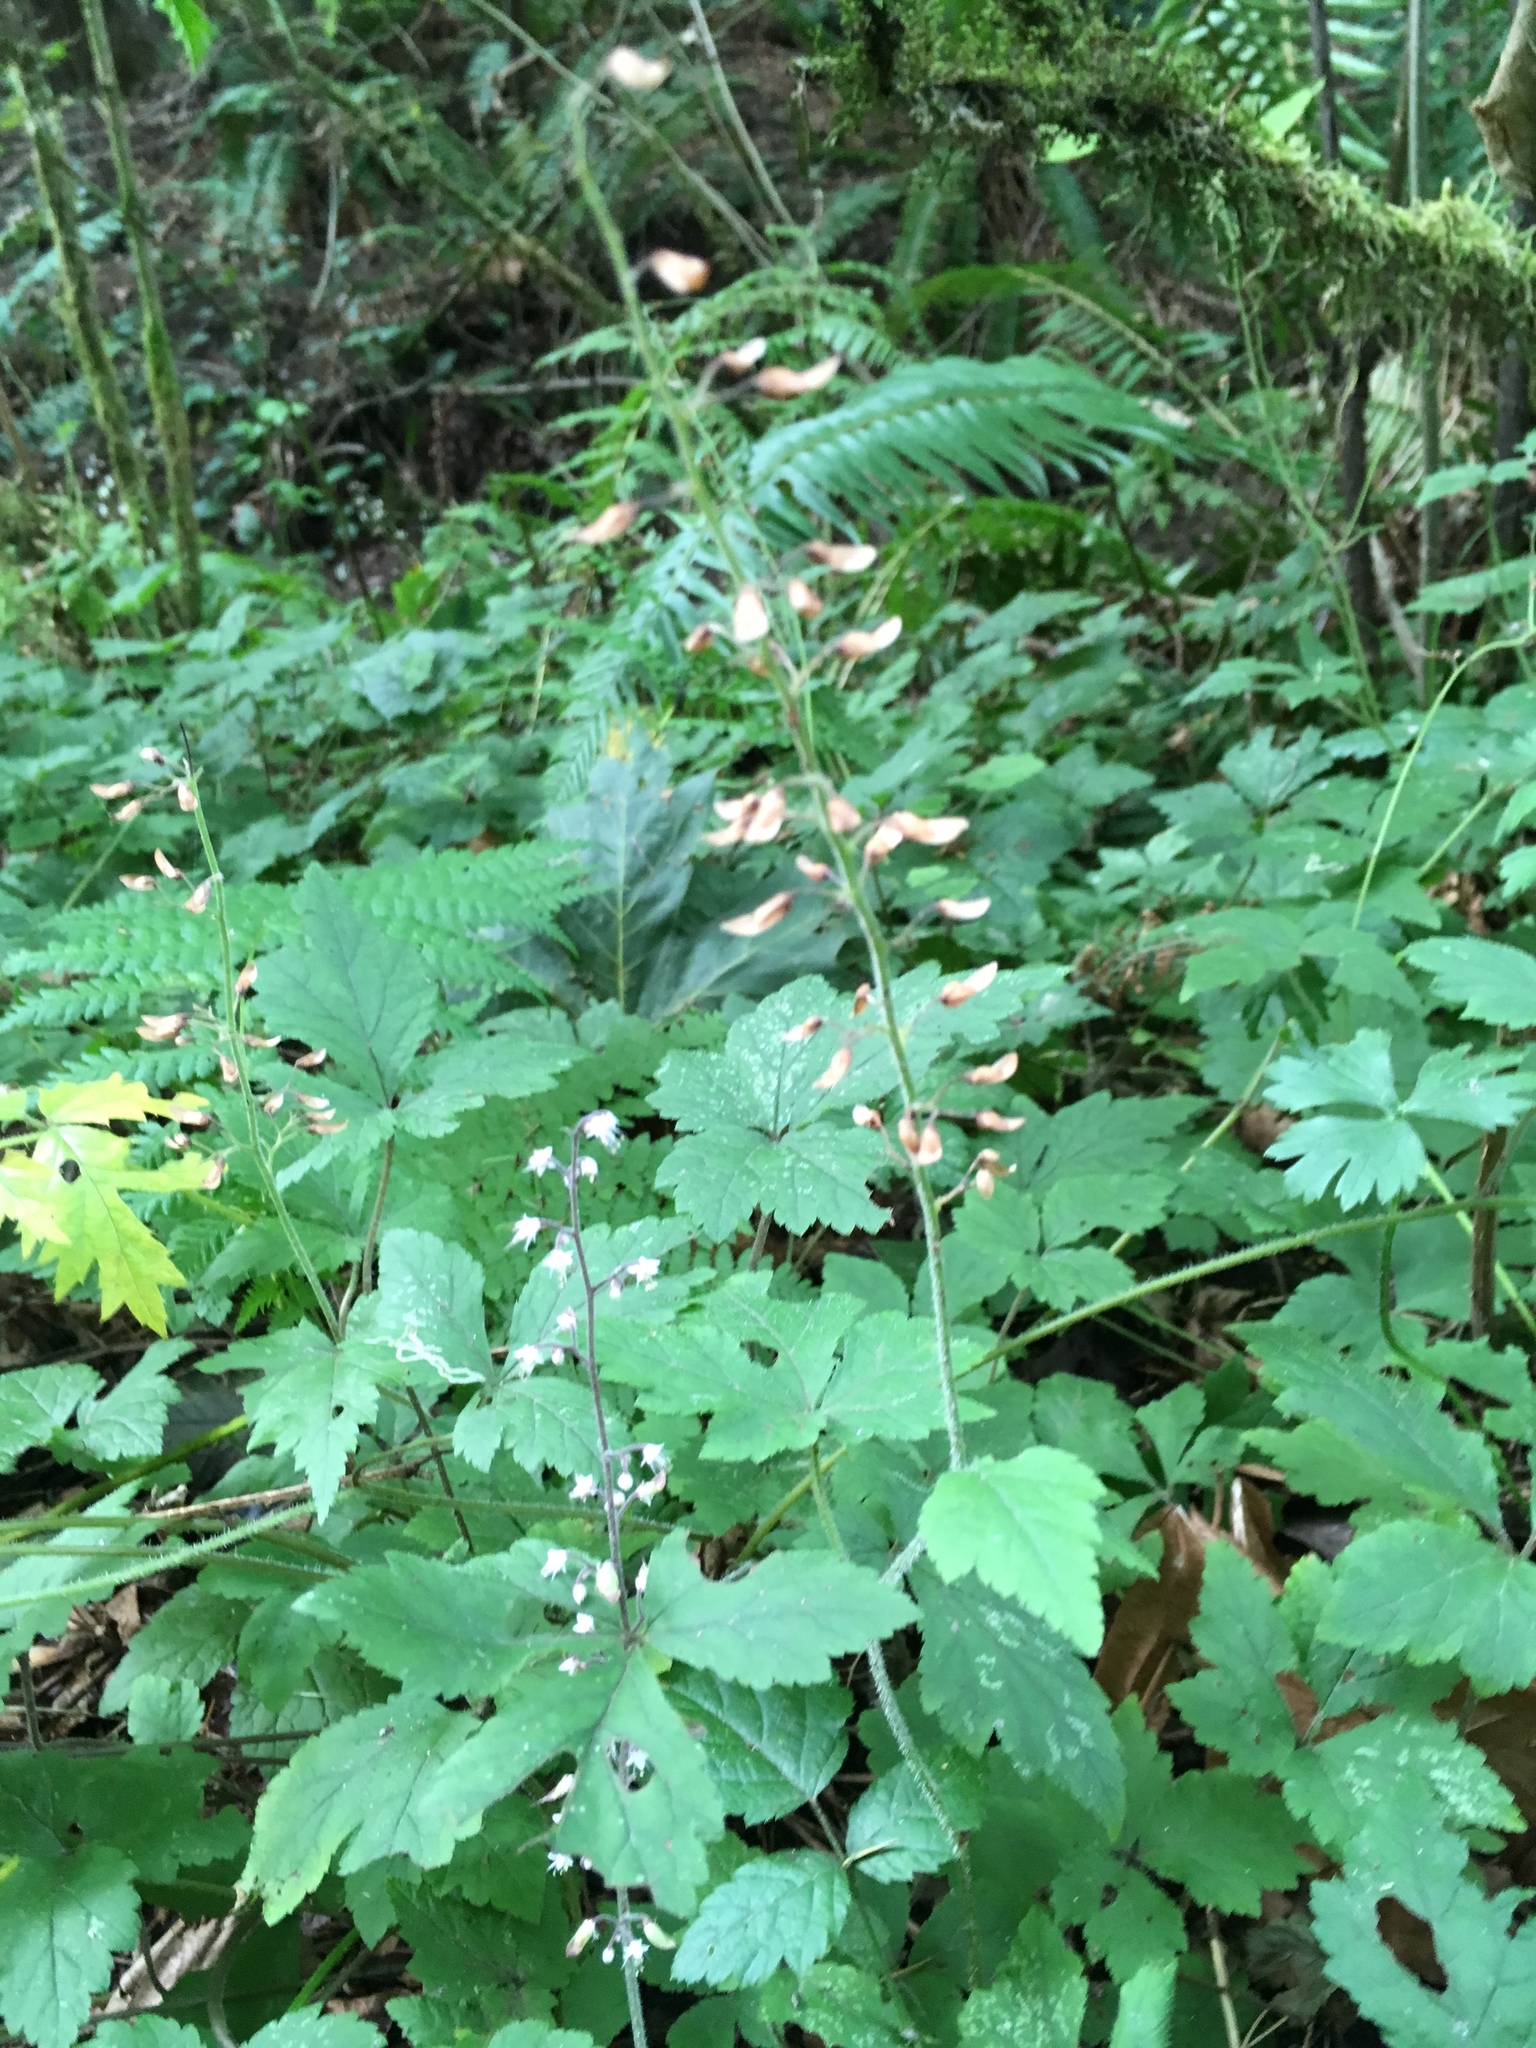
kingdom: Plantae
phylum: Tracheophyta
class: Magnoliopsida
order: Saxifragales
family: Saxifragaceae
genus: Tiarella
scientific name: Tiarella trifoliata
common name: Sugar-scoop
